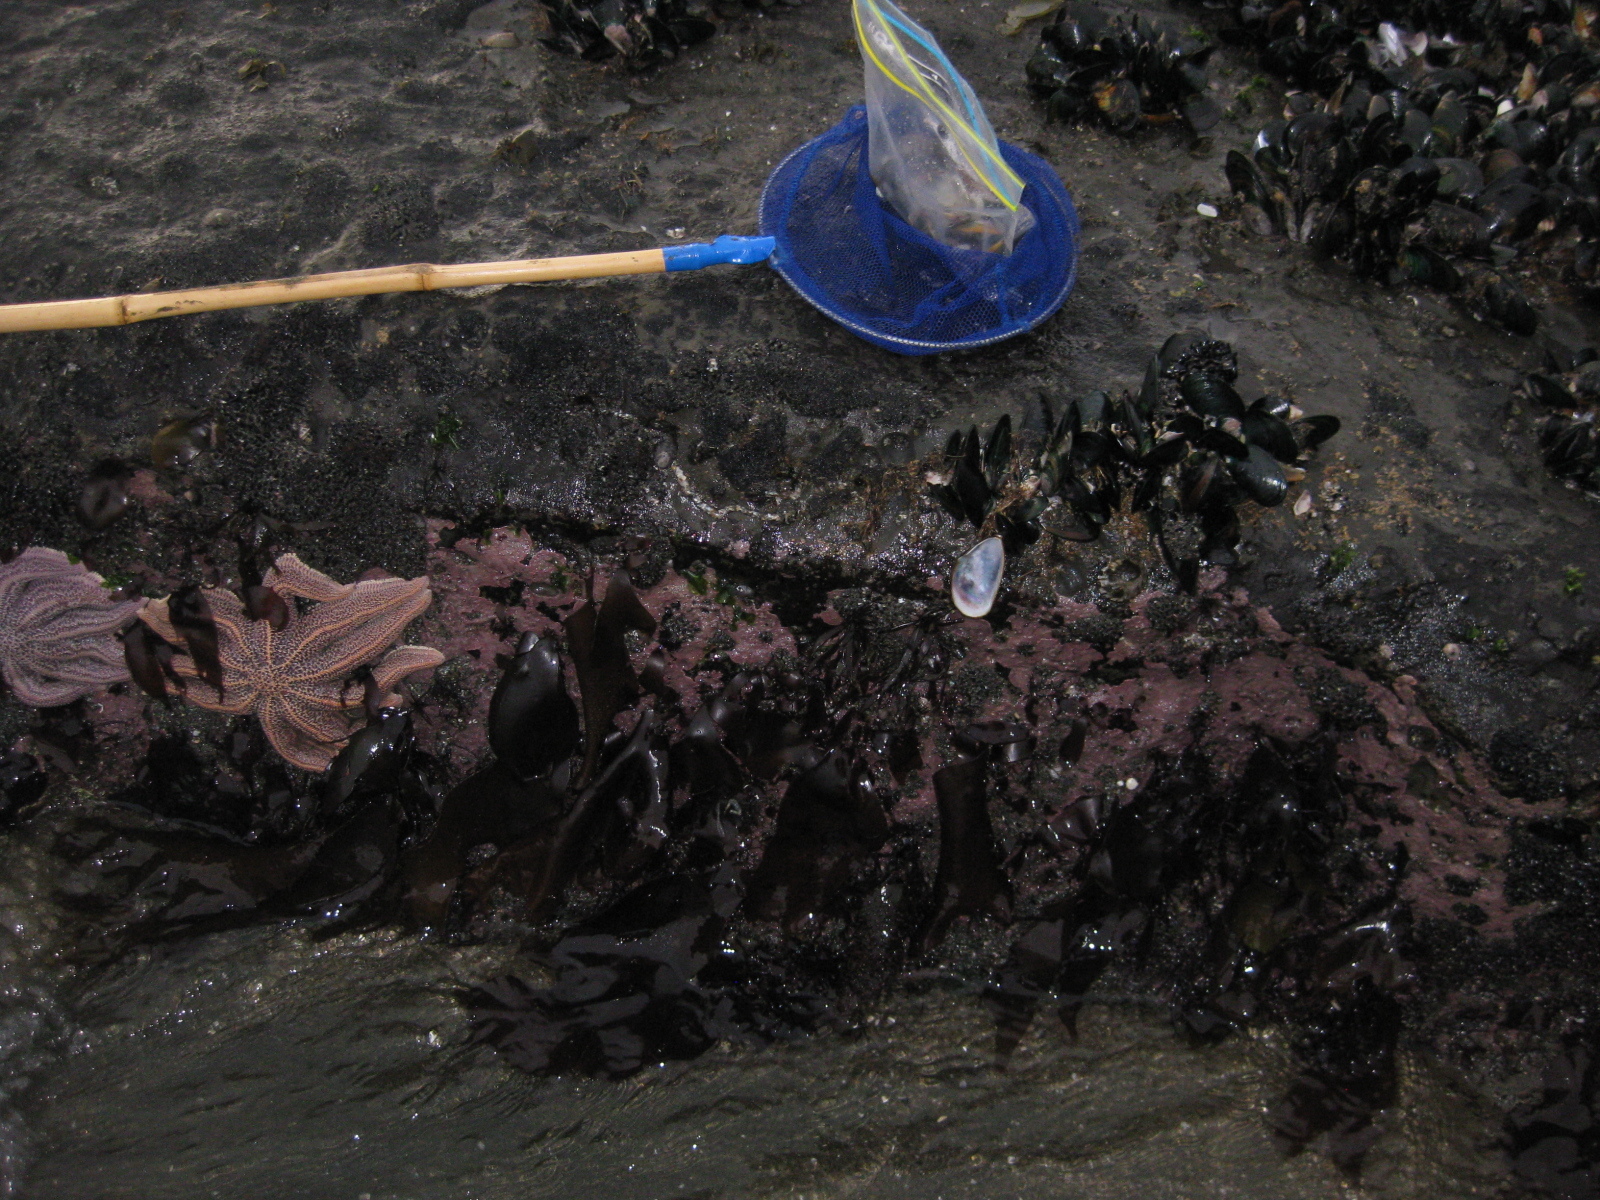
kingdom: Animalia
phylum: Mollusca
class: Gastropoda
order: Neogastropoda
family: Muricidae
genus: Paratrophon
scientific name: Paratrophon cheesemani
